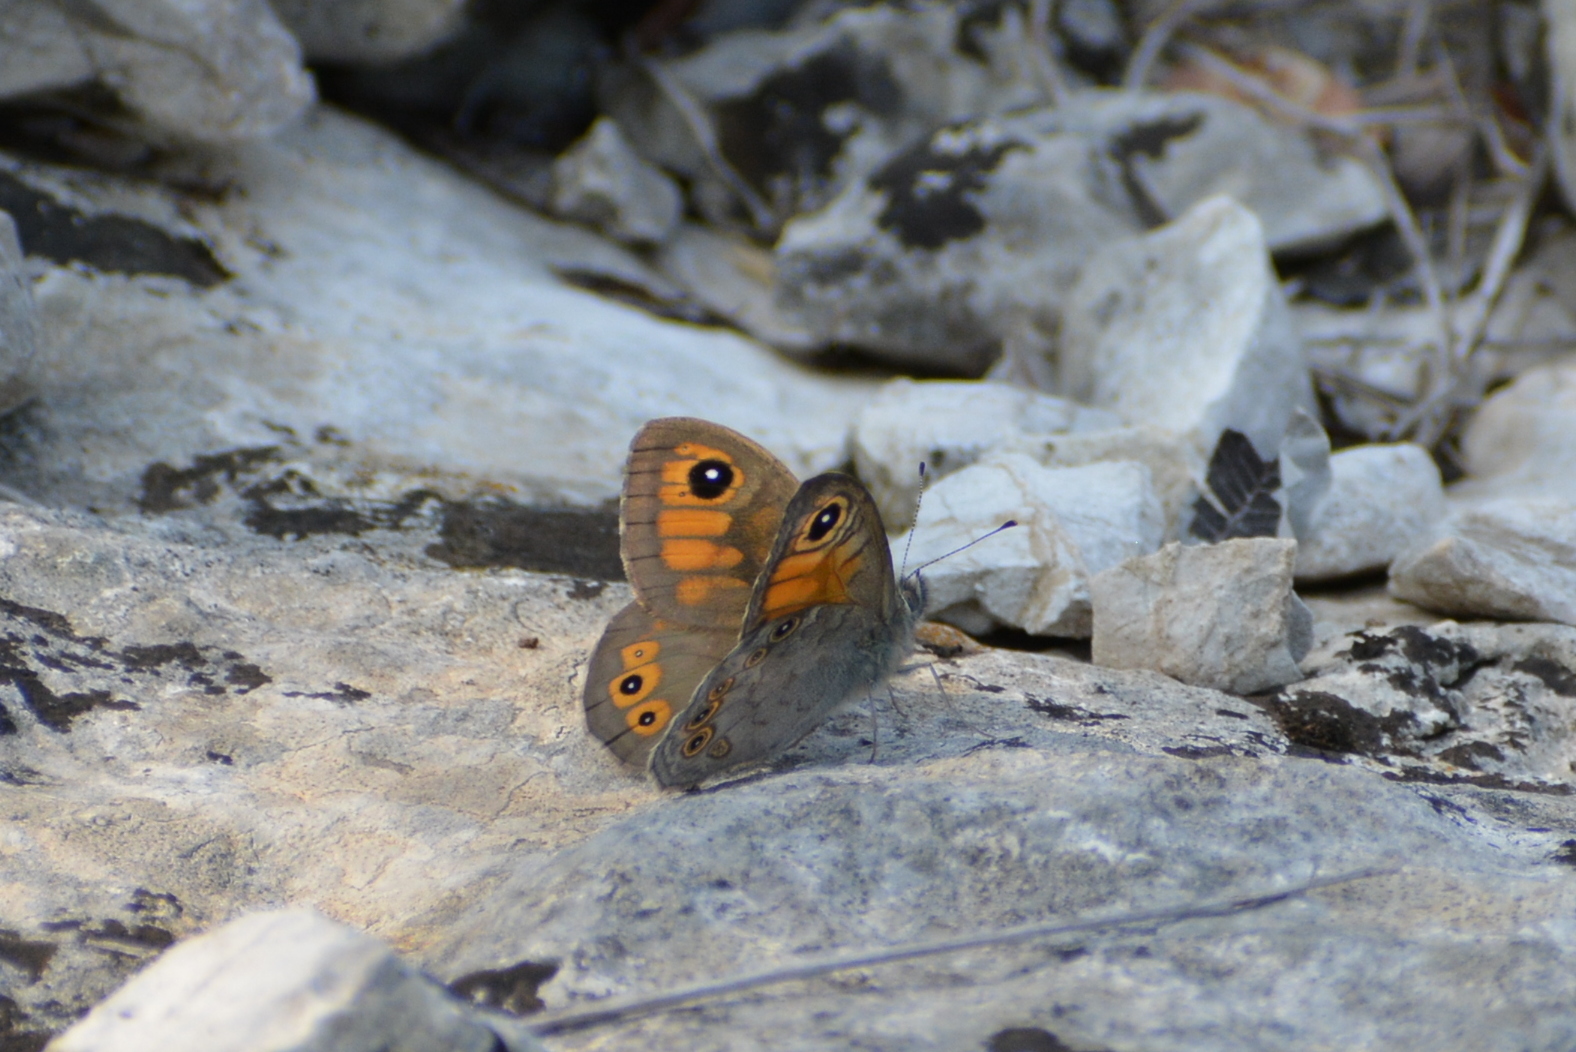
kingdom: Animalia
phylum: Arthropoda
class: Insecta
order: Lepidoptera
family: Nymphalidae
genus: Pararge
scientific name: Pararge Lasiommata maera
